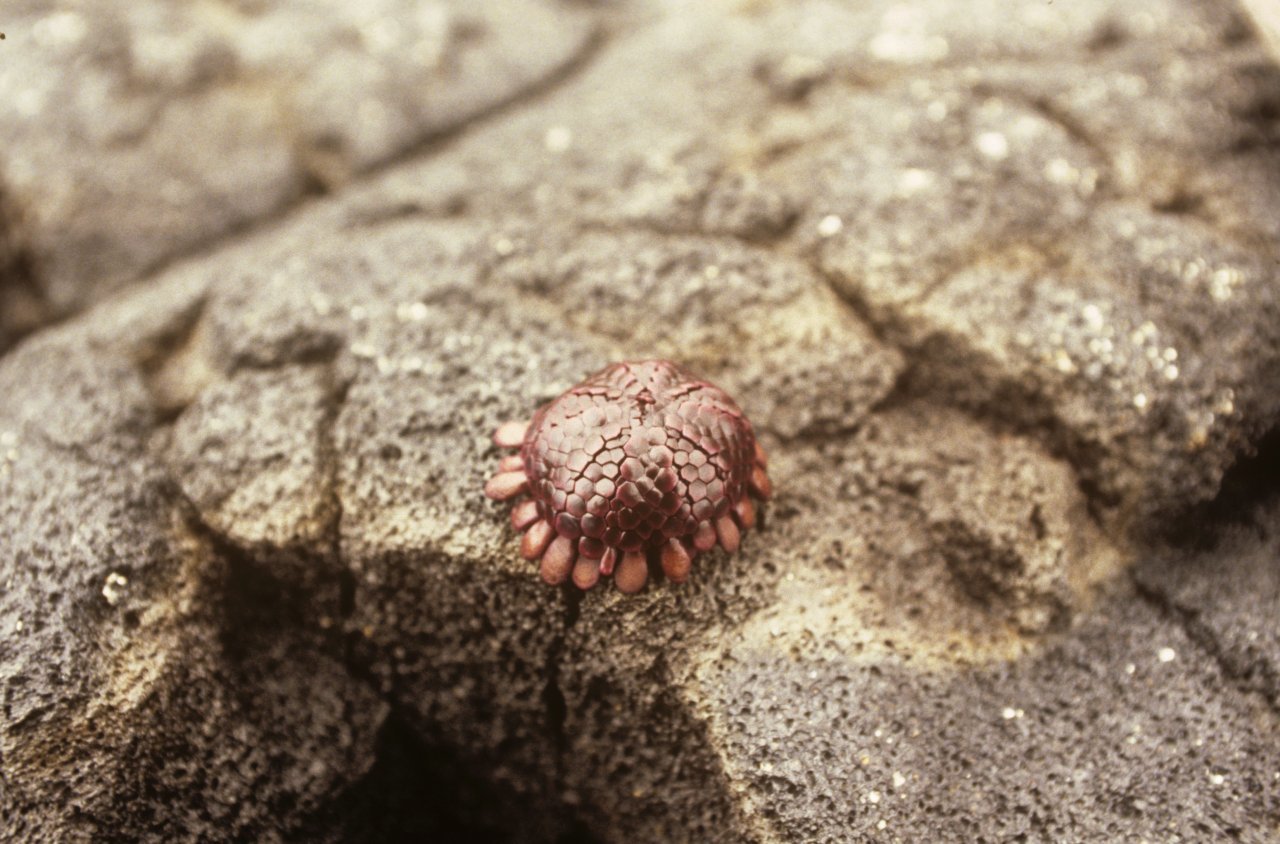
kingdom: Animalia
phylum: Echinodermata
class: Echinoidea
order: Camarodonta
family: Echinometridae
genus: Colobocentrotus
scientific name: Colobocentrotus atratus
